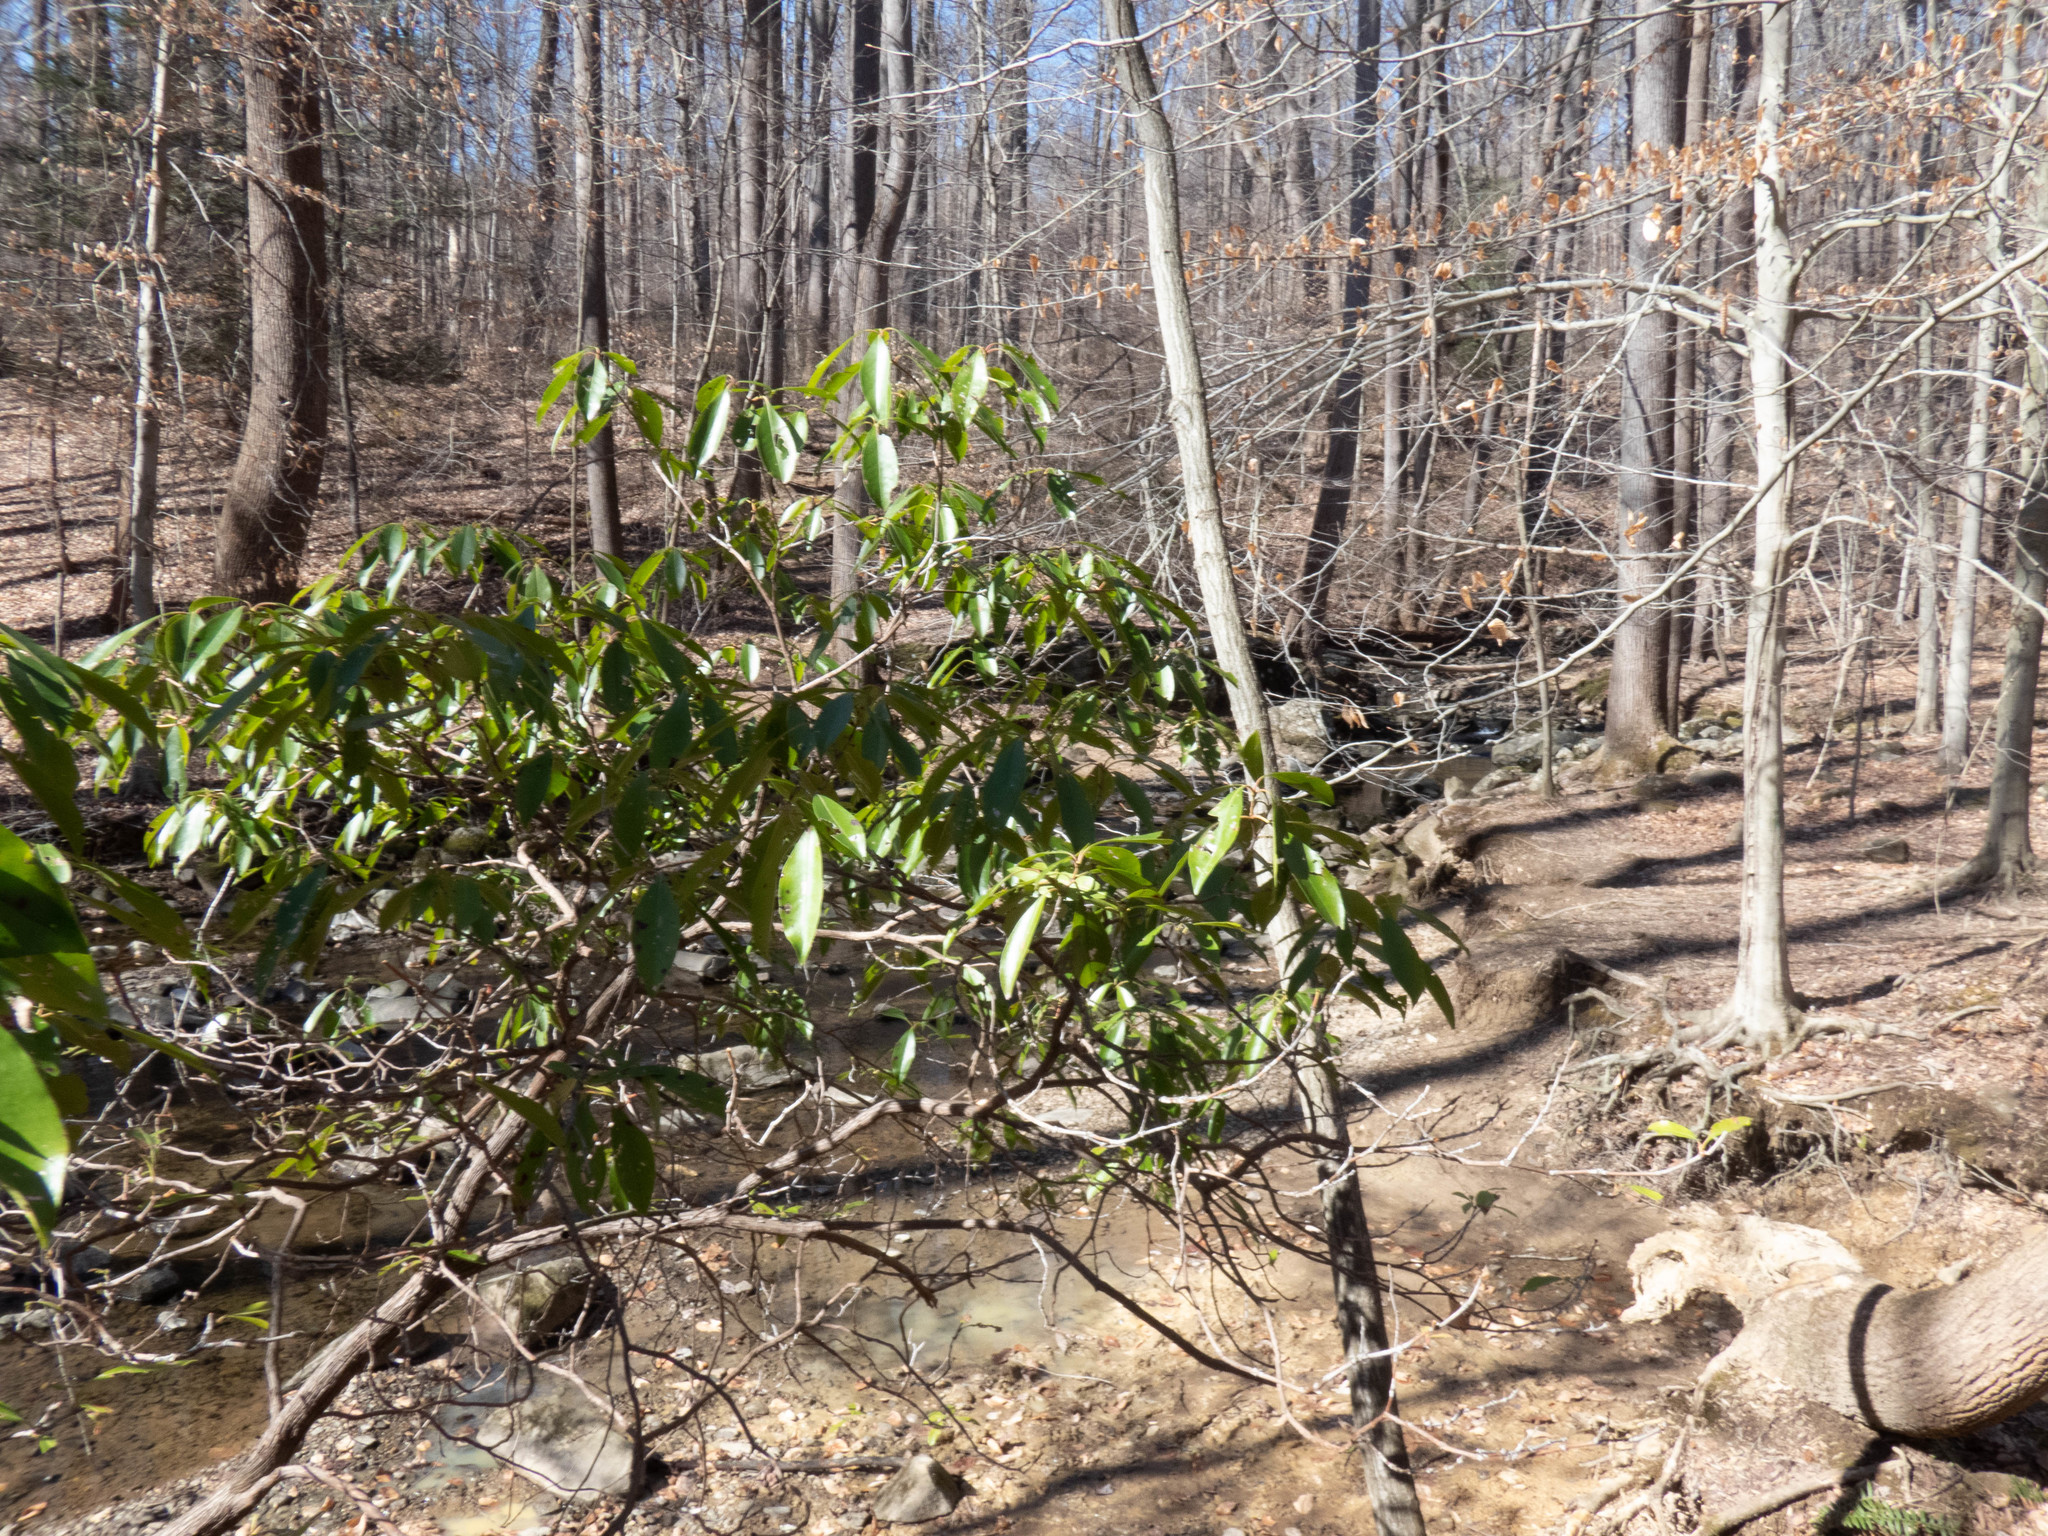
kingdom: Plantae
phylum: Tracheophyta
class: Magnoliopsida
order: Ericales
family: Ericaceae
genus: Kalmia
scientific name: Kalmia latifolia
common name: Mountain-laurel
